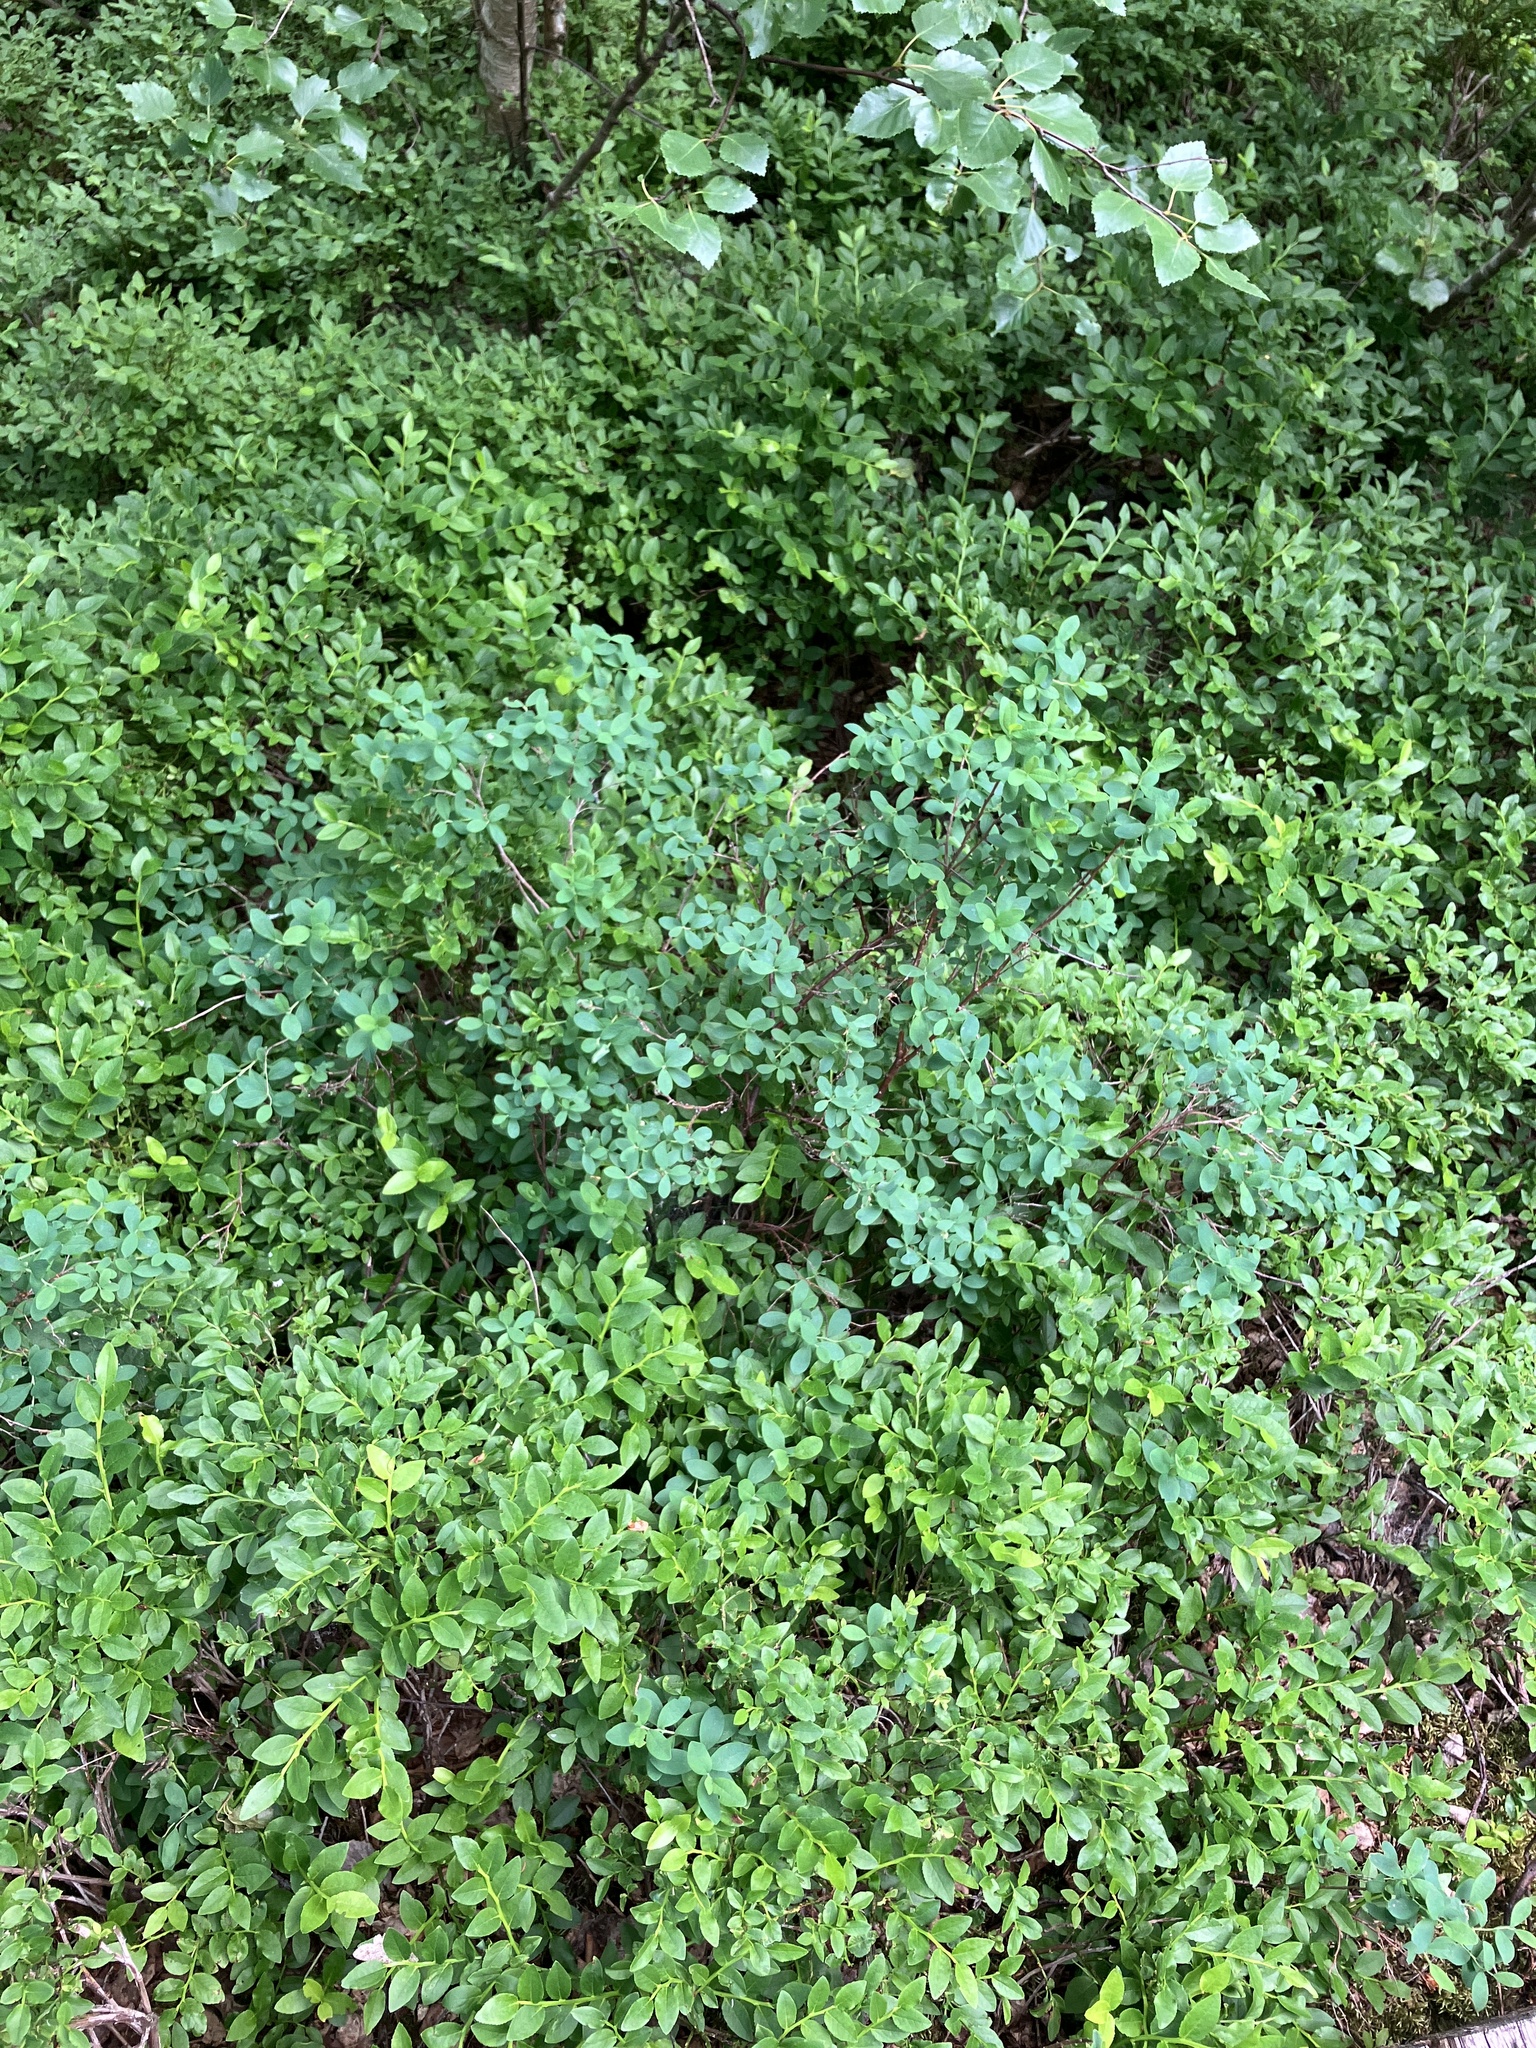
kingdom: Plantae
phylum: Tracheophyta
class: Magnoliopsida
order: Ericales
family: Ericaceae
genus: Vaccinium
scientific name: Vaccinium uliginosum
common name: Bog bilberry
